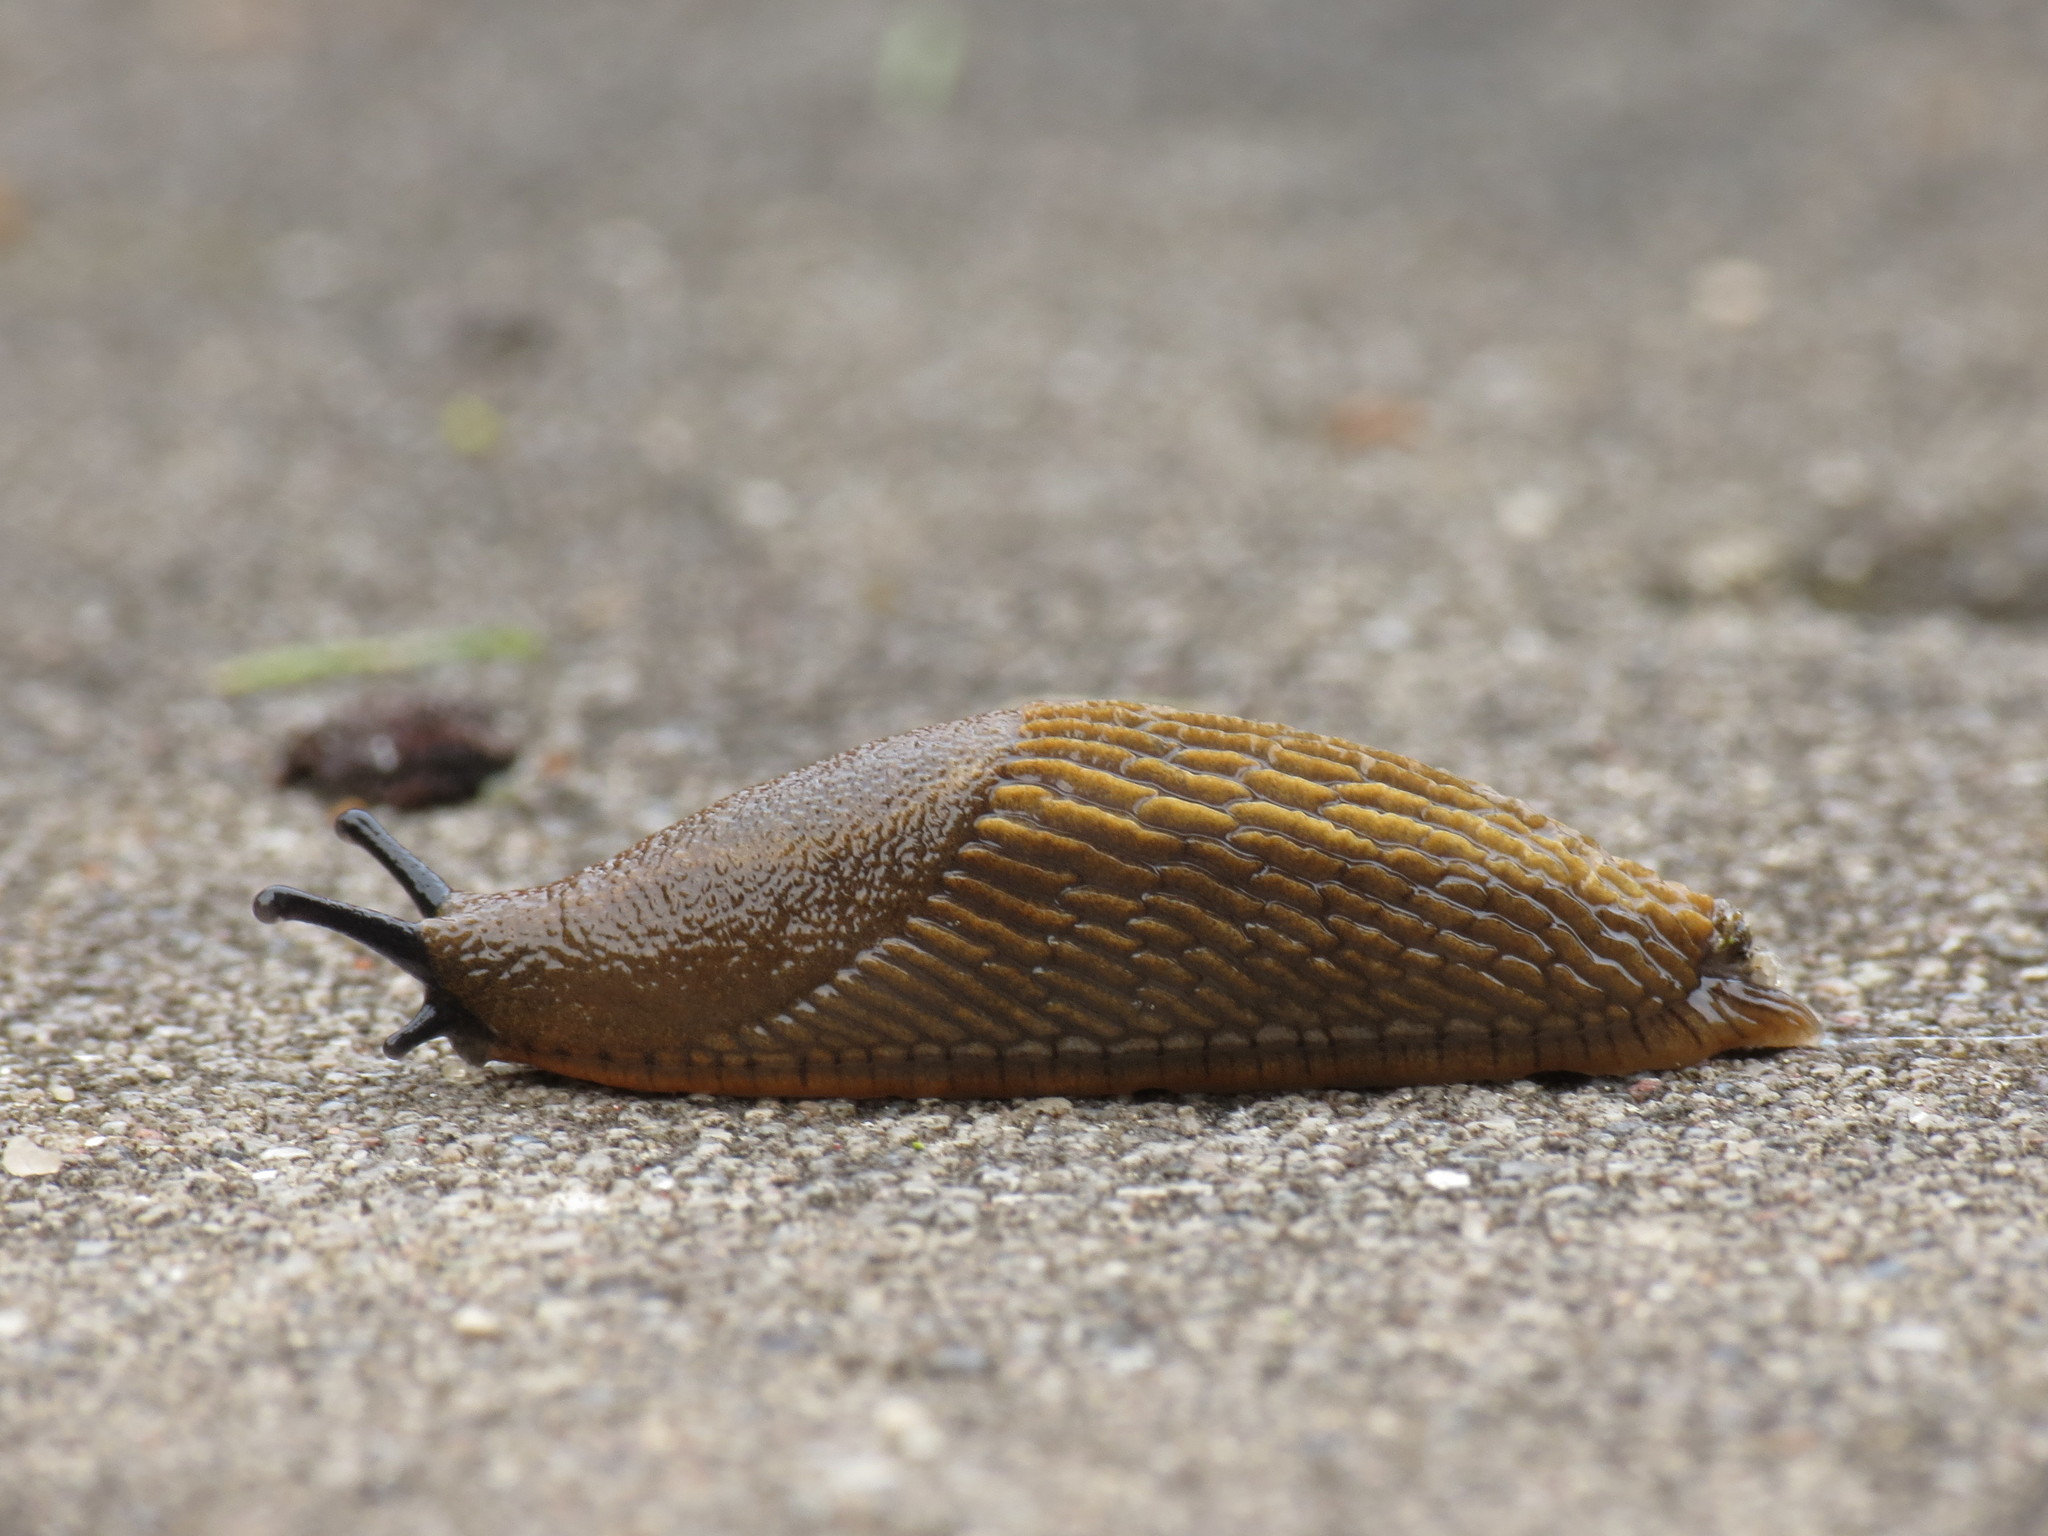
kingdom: Animalia
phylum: Mollusca
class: Gastropoda
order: Stylommatophora
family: Arionidae
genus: Arion
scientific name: Arion vulgaris
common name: Lusitanian slug
